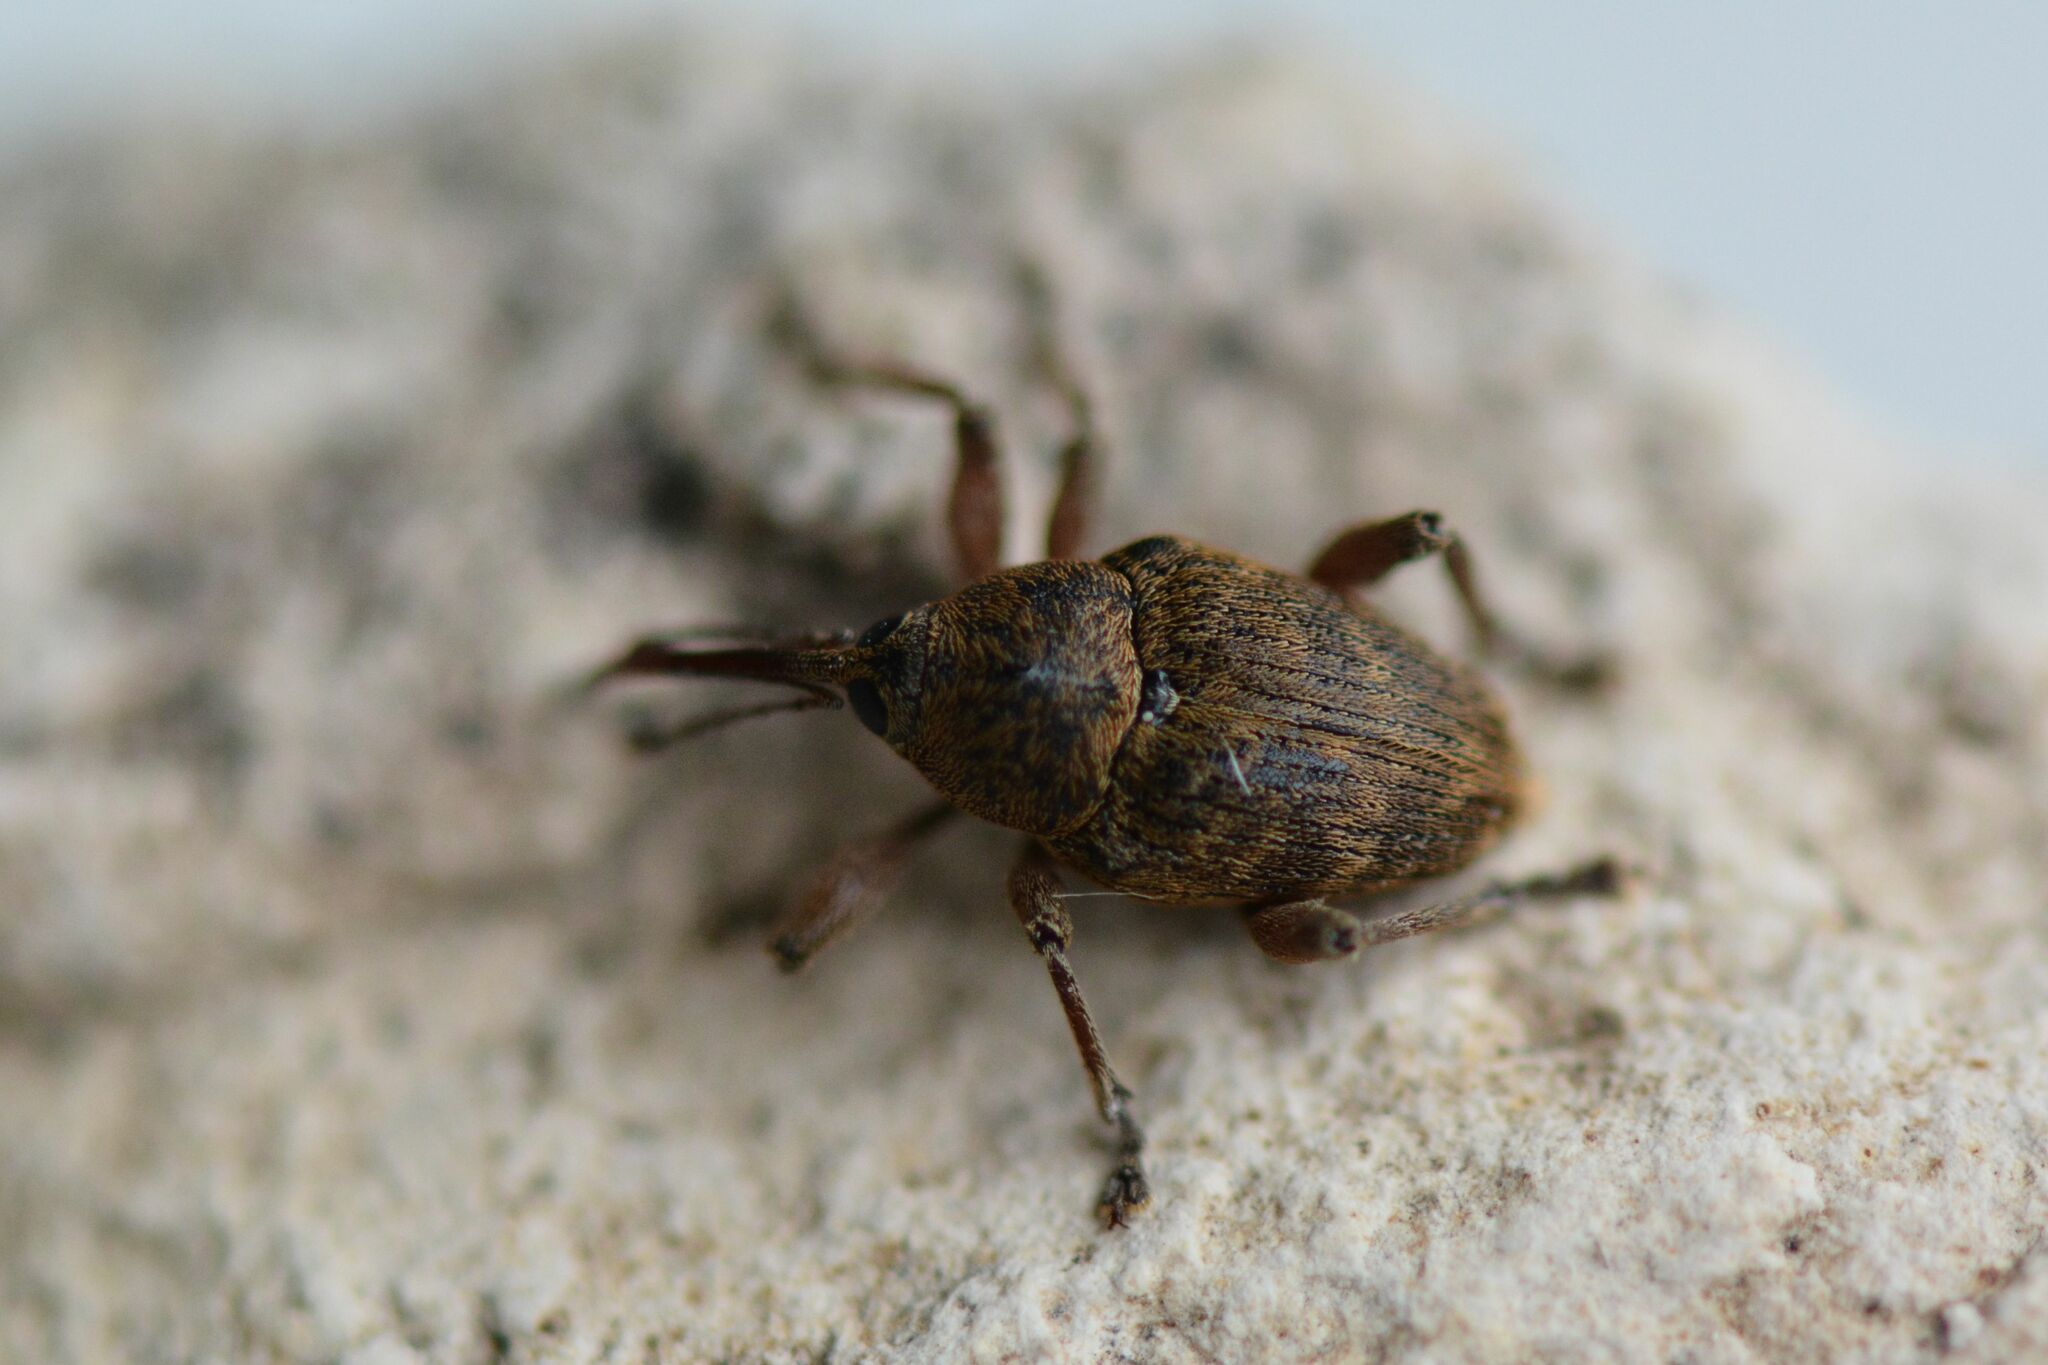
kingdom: Animalia
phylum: Arthropoda
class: Insecta
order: Coleoptera
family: Curculionidae
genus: Curculio
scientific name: Curculio nucum
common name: Nut weevil
